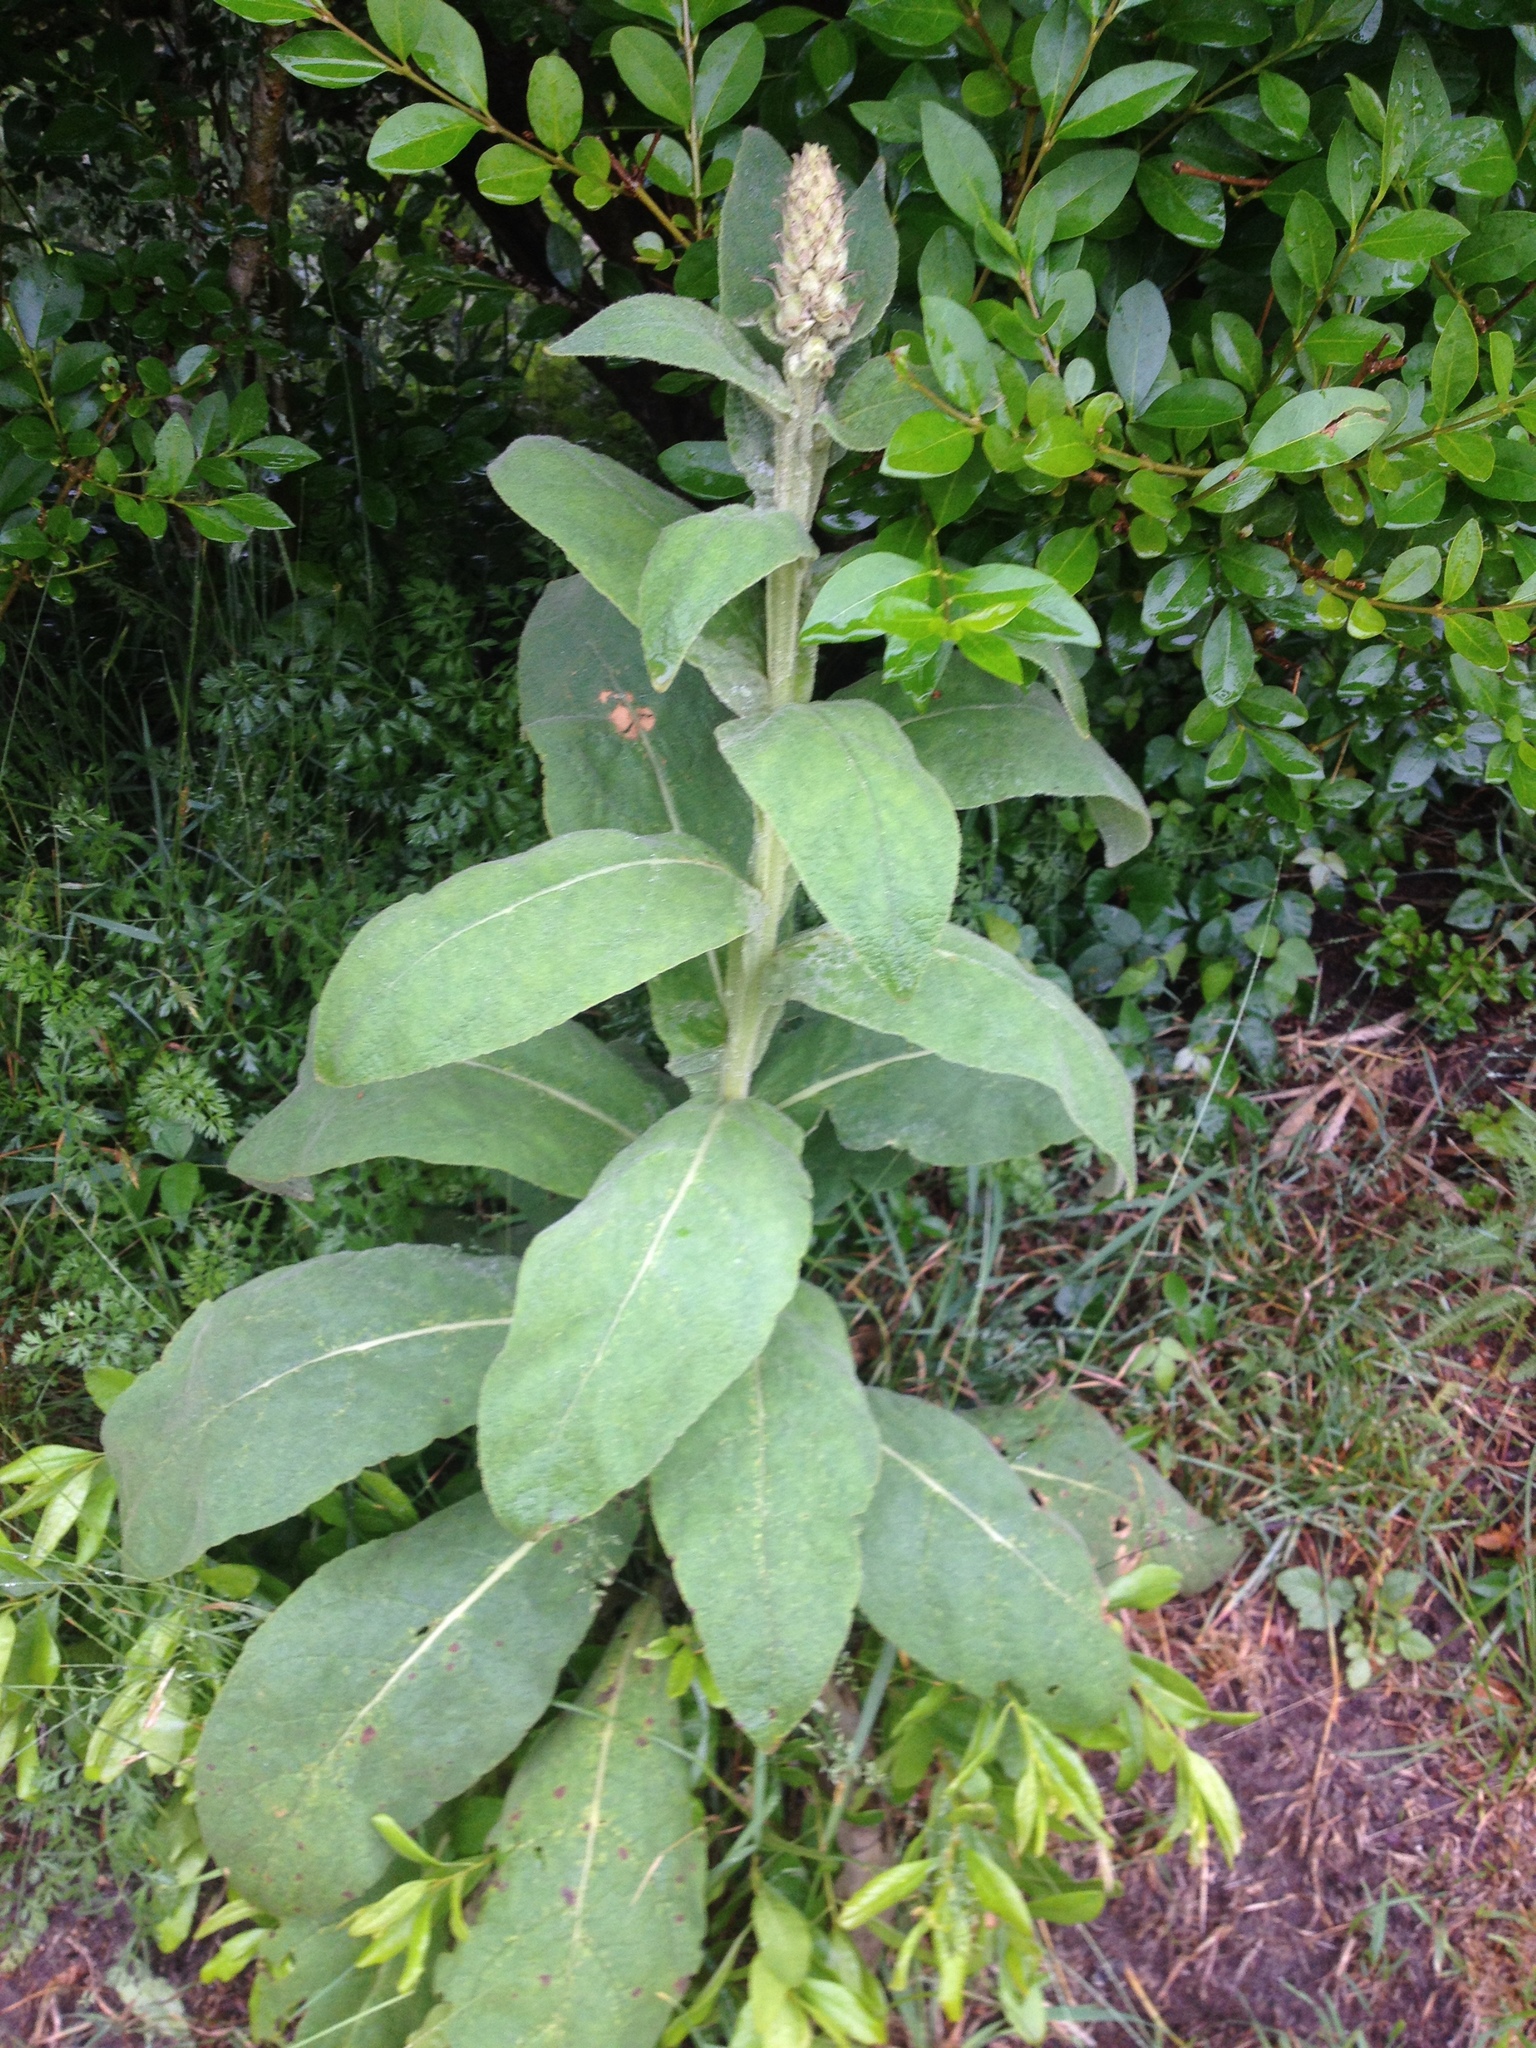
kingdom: Plantae
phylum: Tracheophyta
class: Magnoliopsida
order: Lamiales
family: Scrophulariaceae
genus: Verbascum
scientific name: Verbascum thapsus
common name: Common mullein
